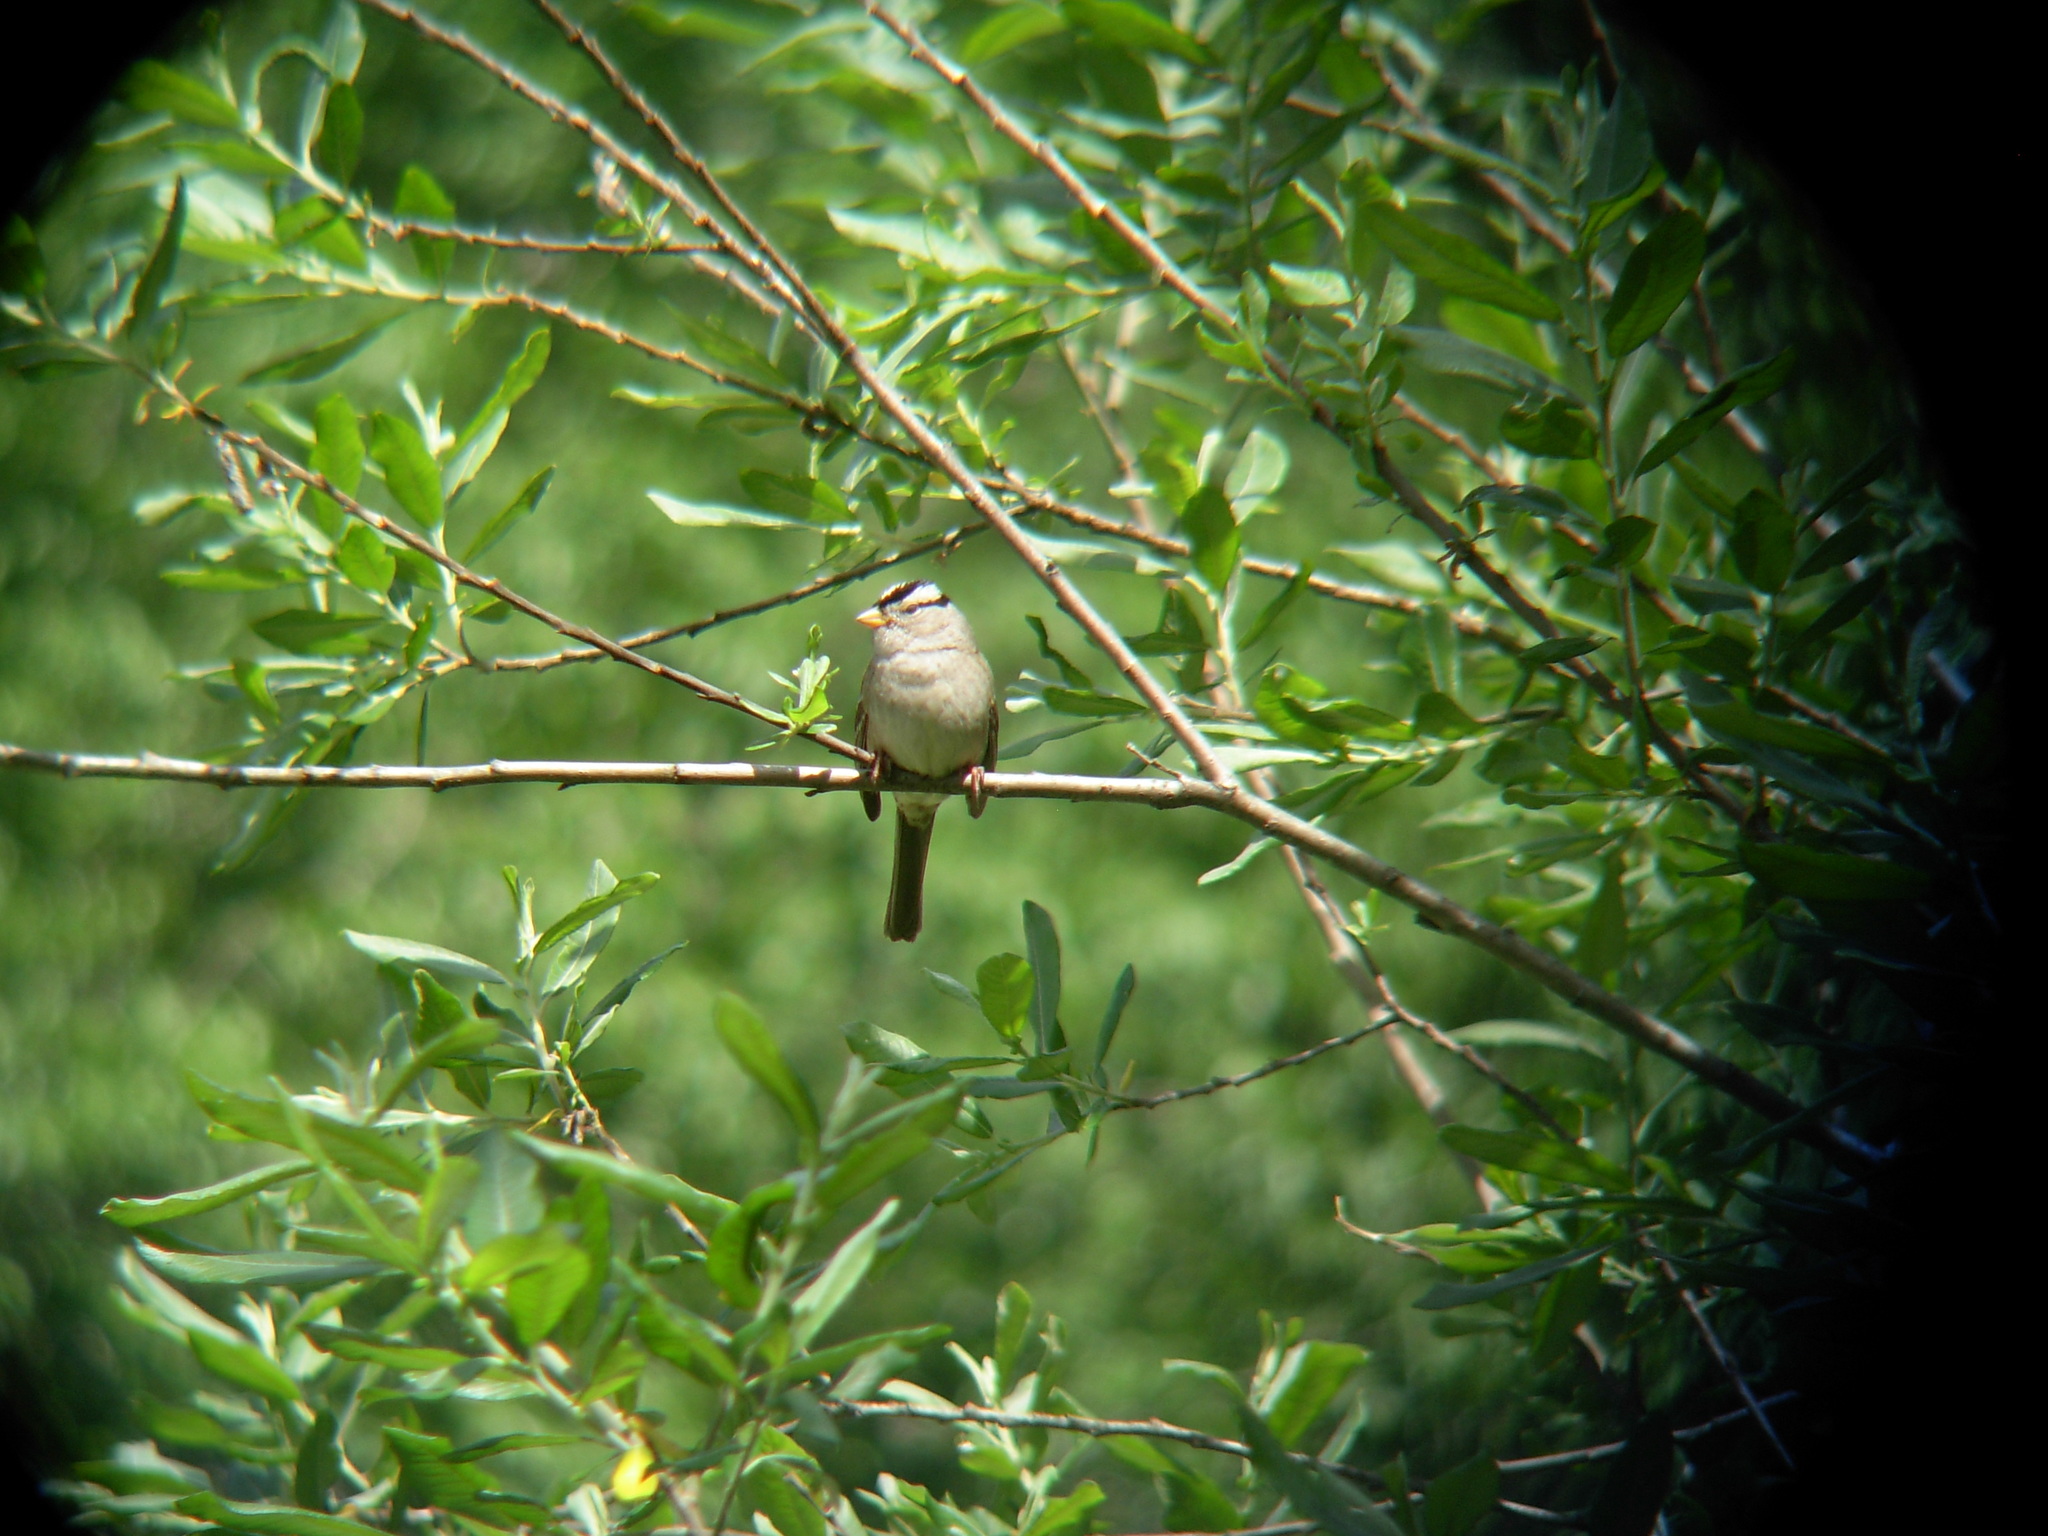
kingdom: Animalia
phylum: Chordata
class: Aves
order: Passeriformes
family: Passerellidae
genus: Zonotrichia
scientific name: Zonotrichia leucophrys
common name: White-crowned sparrow
